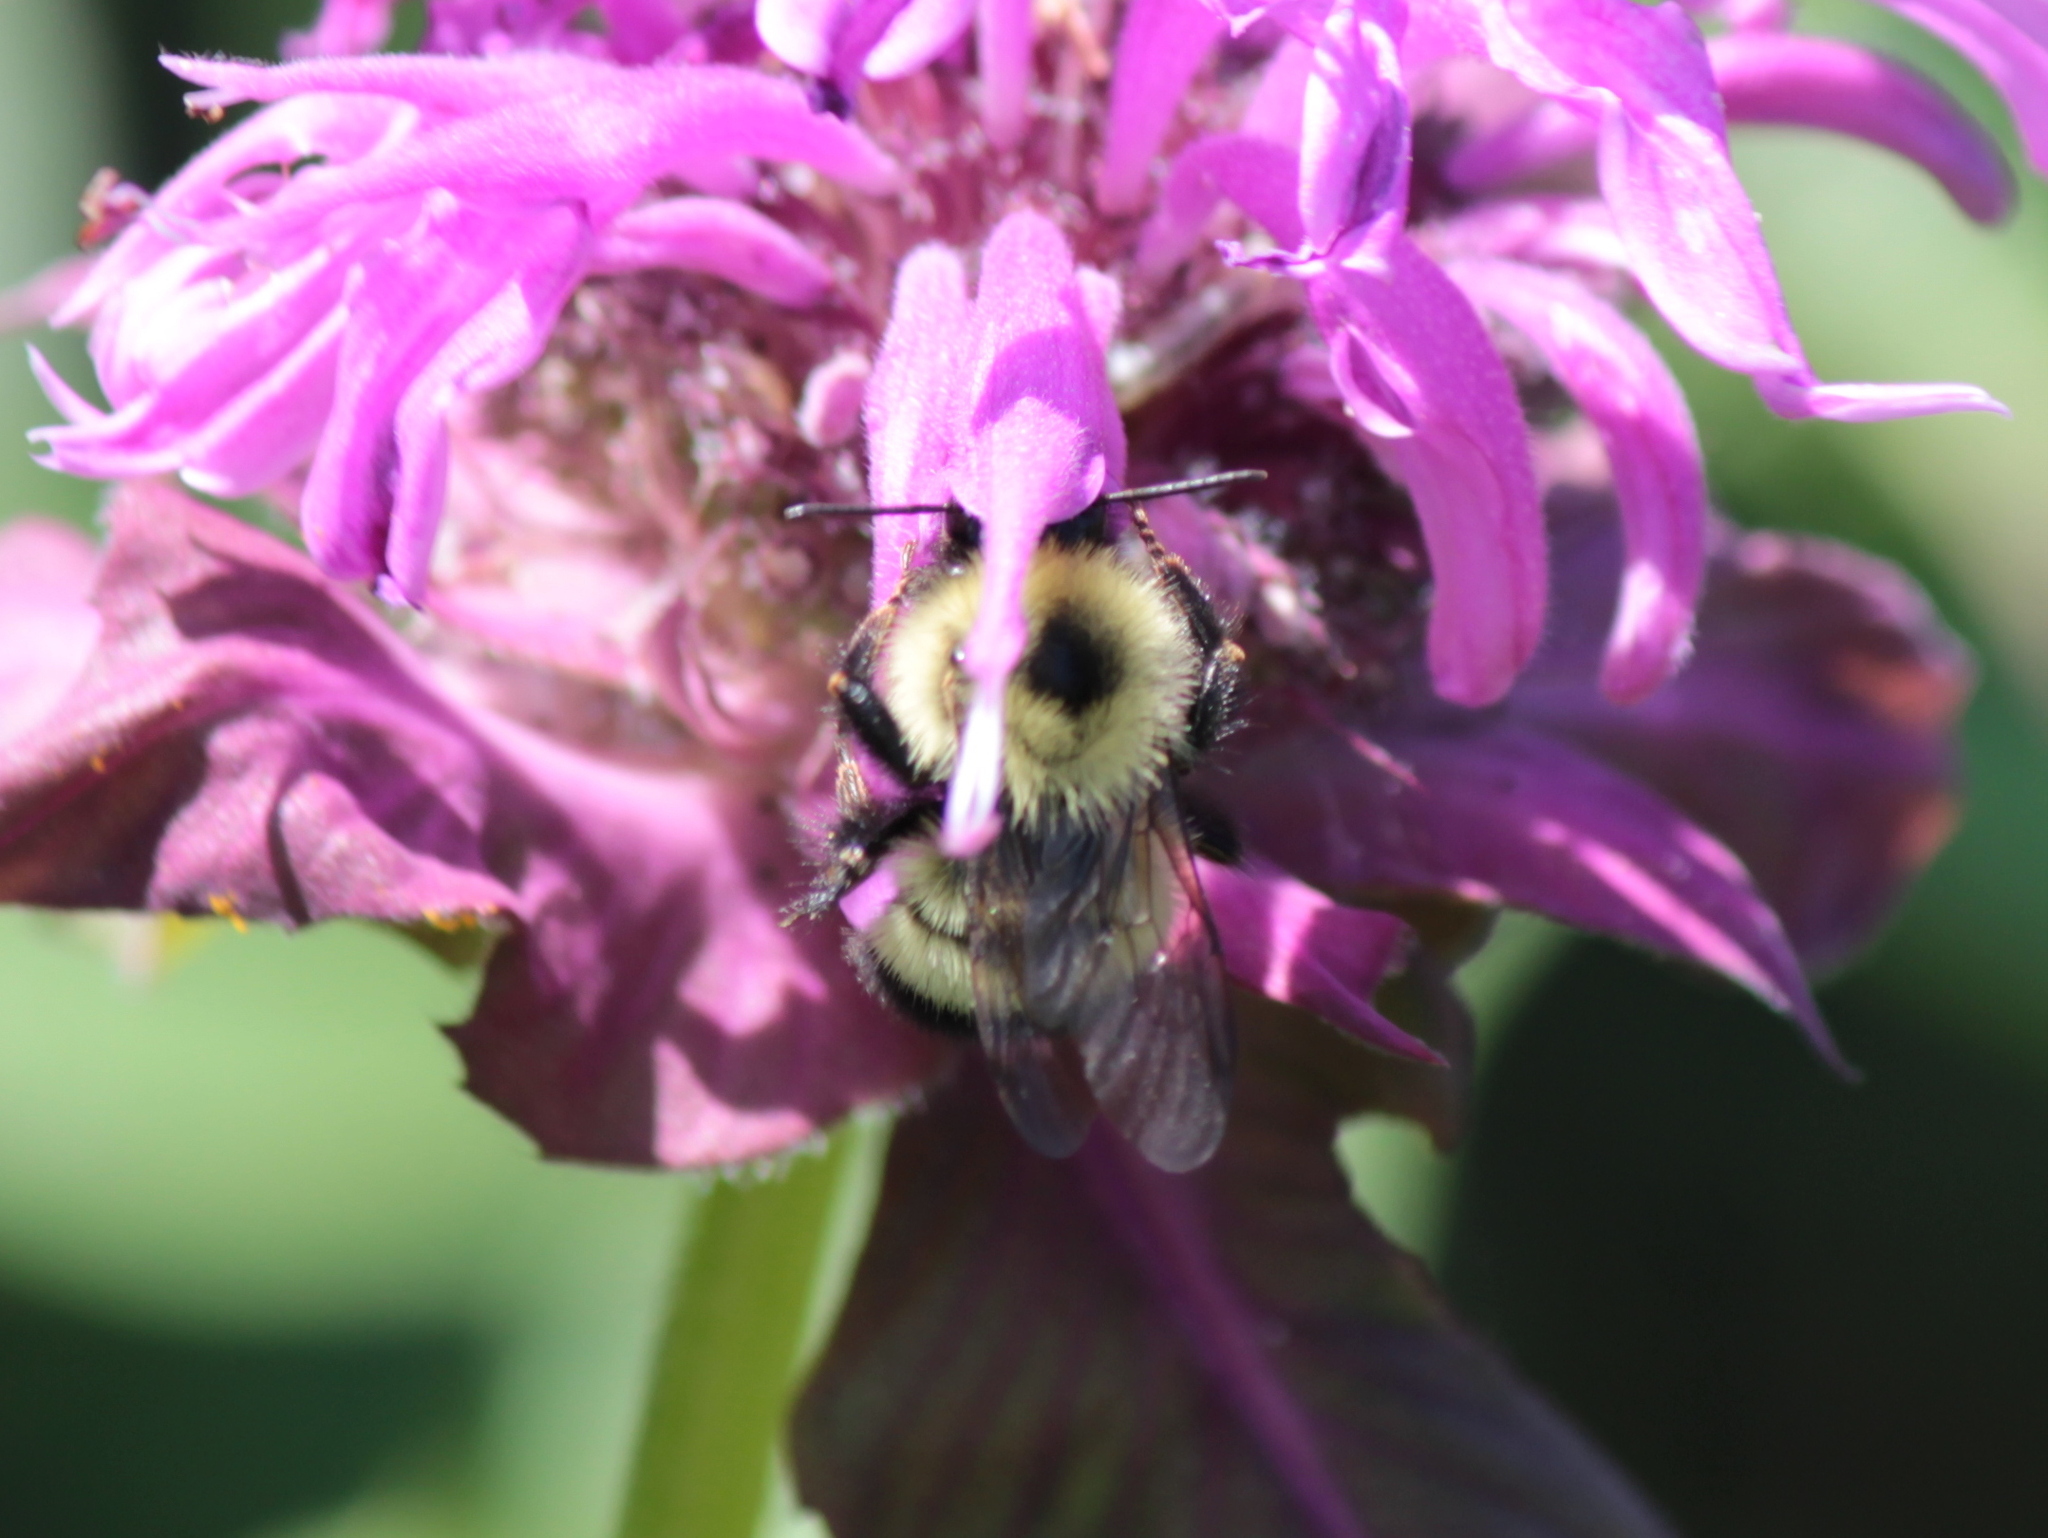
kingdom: Animalia
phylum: Arthropoda
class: Insecta
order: Hymenoptera
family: Apidae
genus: Pyrobombus
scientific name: Pyrobombus
